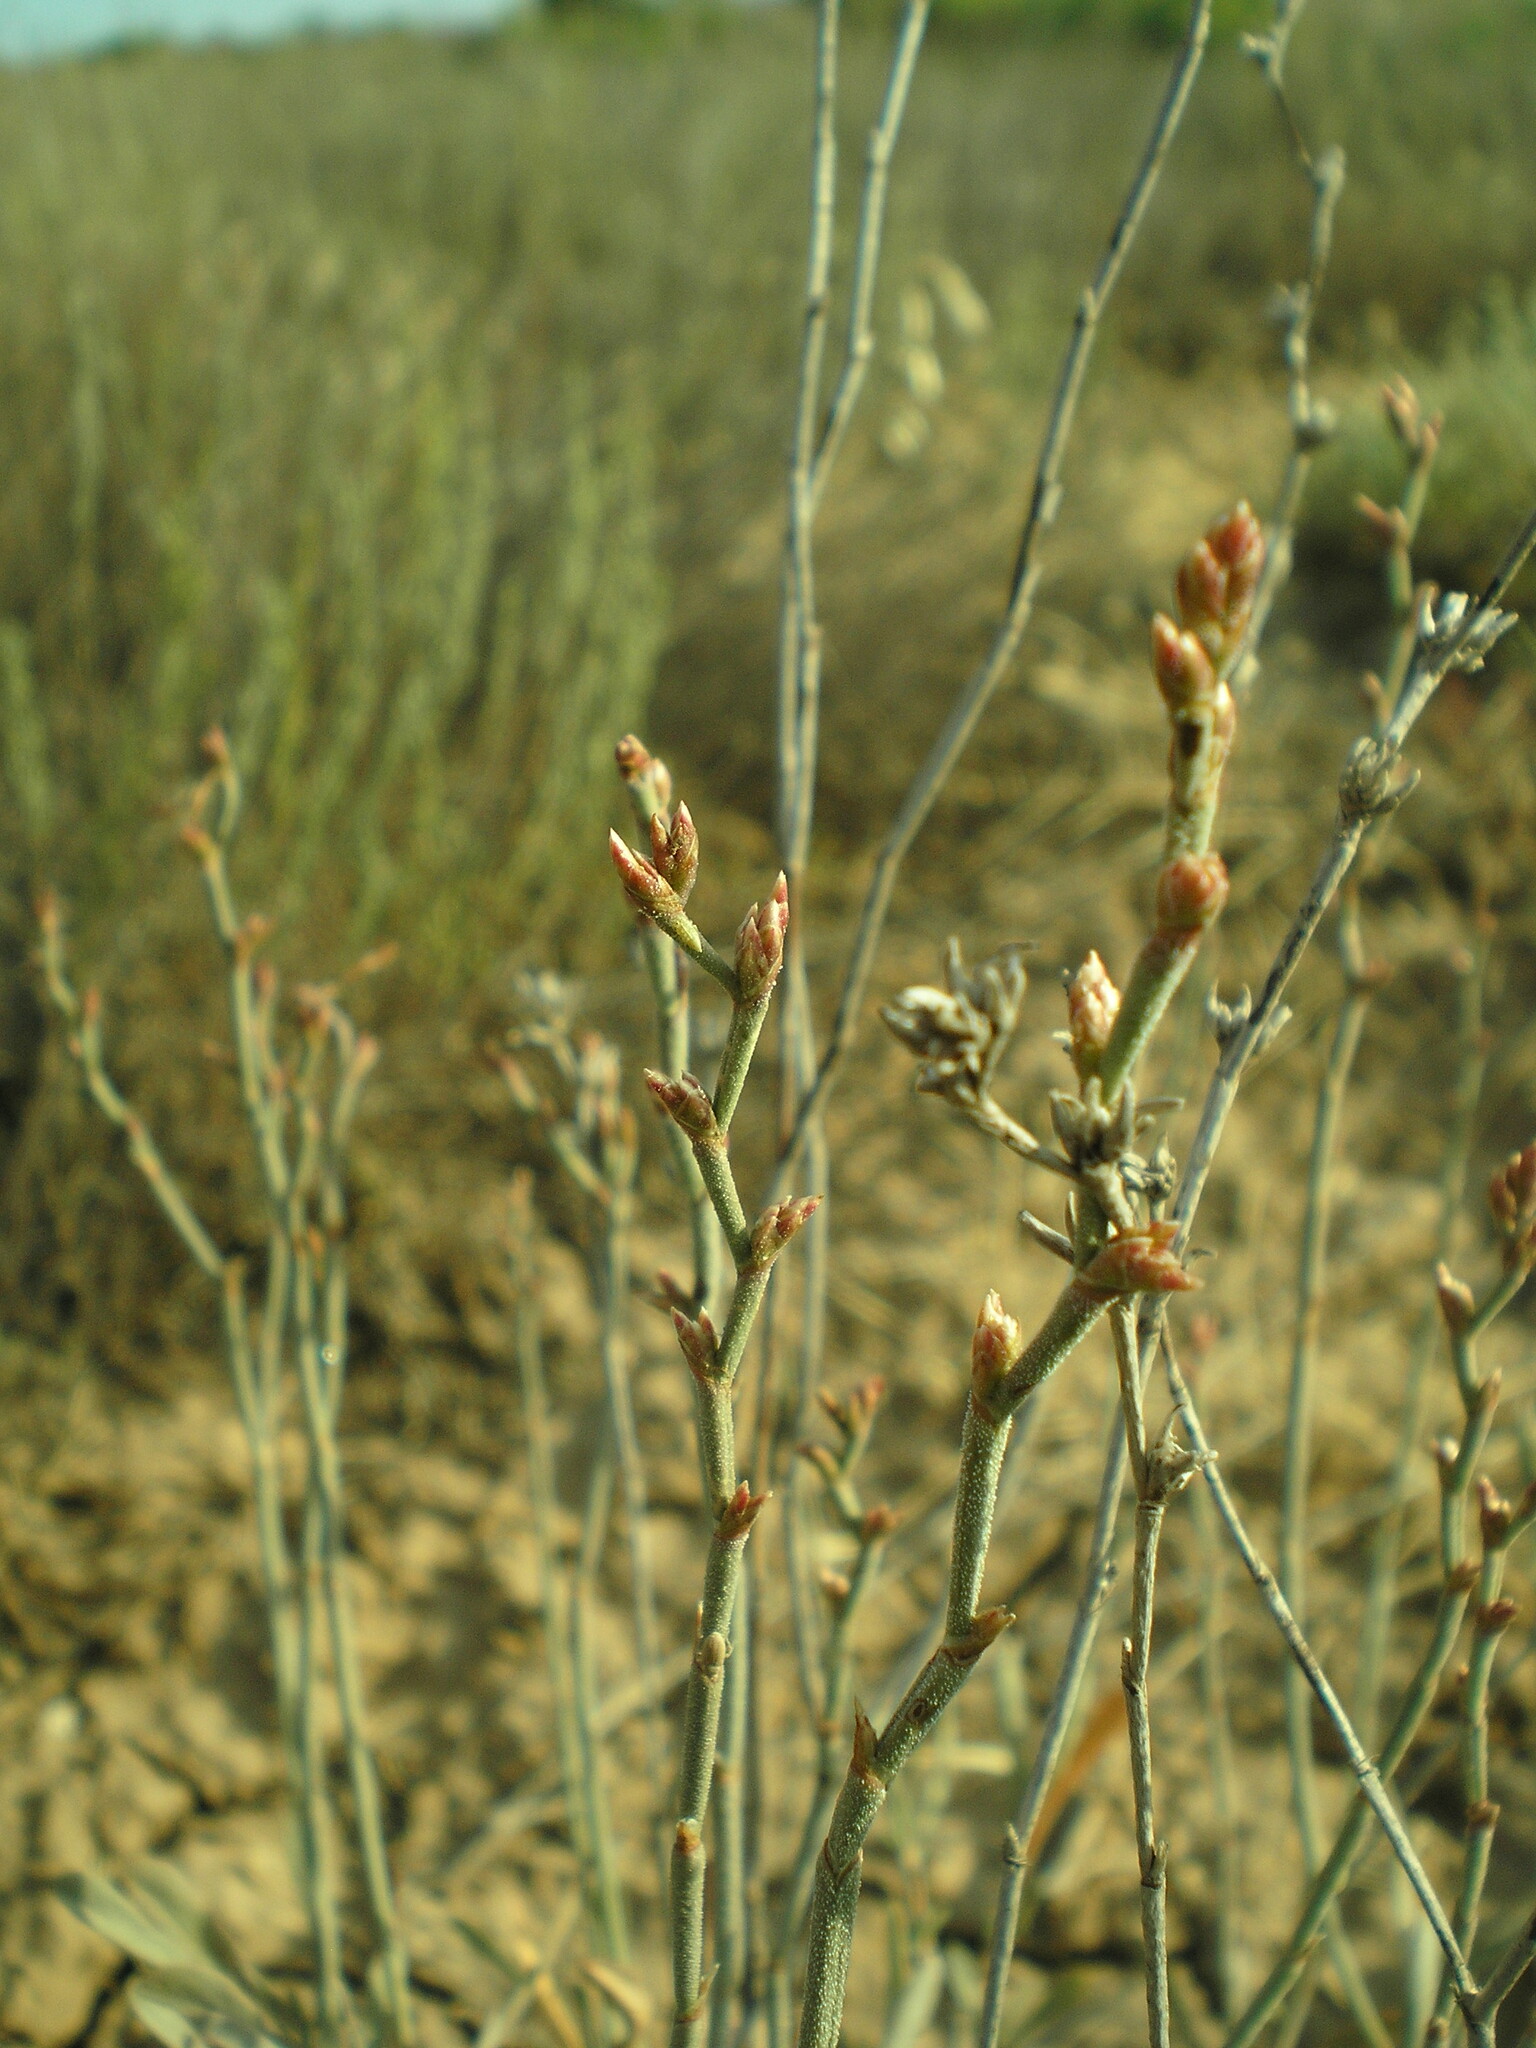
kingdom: Plantae
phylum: Tracheophyta
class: Magnoliopsida
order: Caryophyllales
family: Plumbaginaceae
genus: Limonium
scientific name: Limonium suffruticosum
